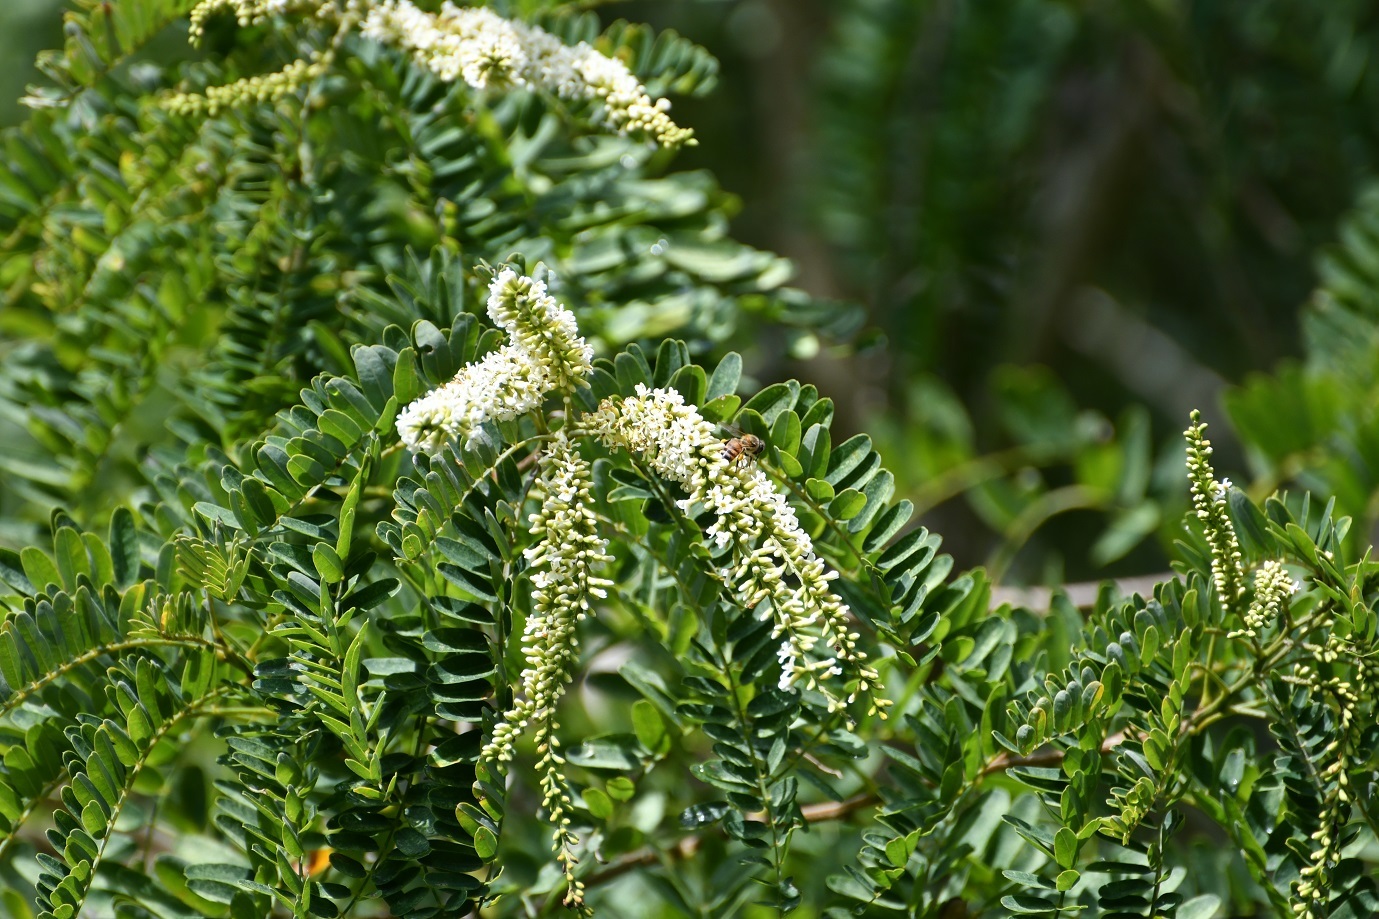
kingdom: Plantae
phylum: Tracheophyta
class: Magnoliopsida
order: Fabales
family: Fabaceae
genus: Eysenhardtia
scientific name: Eysenhardtia adenostylis
